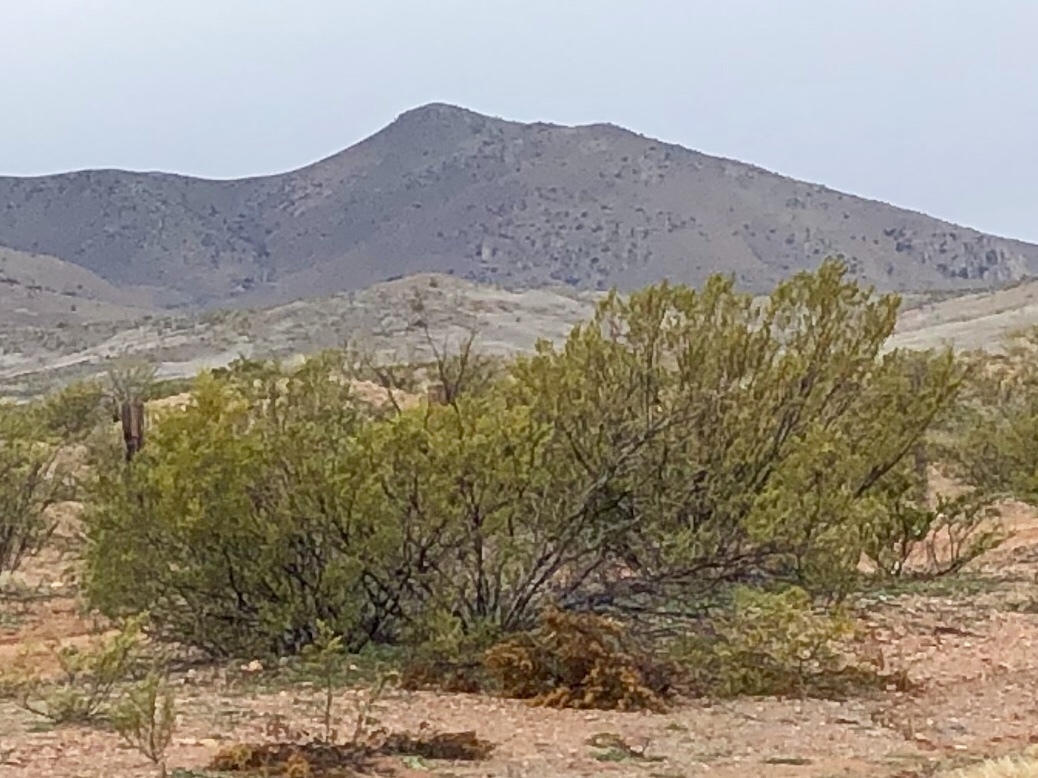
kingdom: Plantae
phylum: Tracheophyta
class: Magnoliopsida
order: Zygophyllales
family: Zygophyllaceae
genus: Larrea
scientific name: Larrea tridentata
